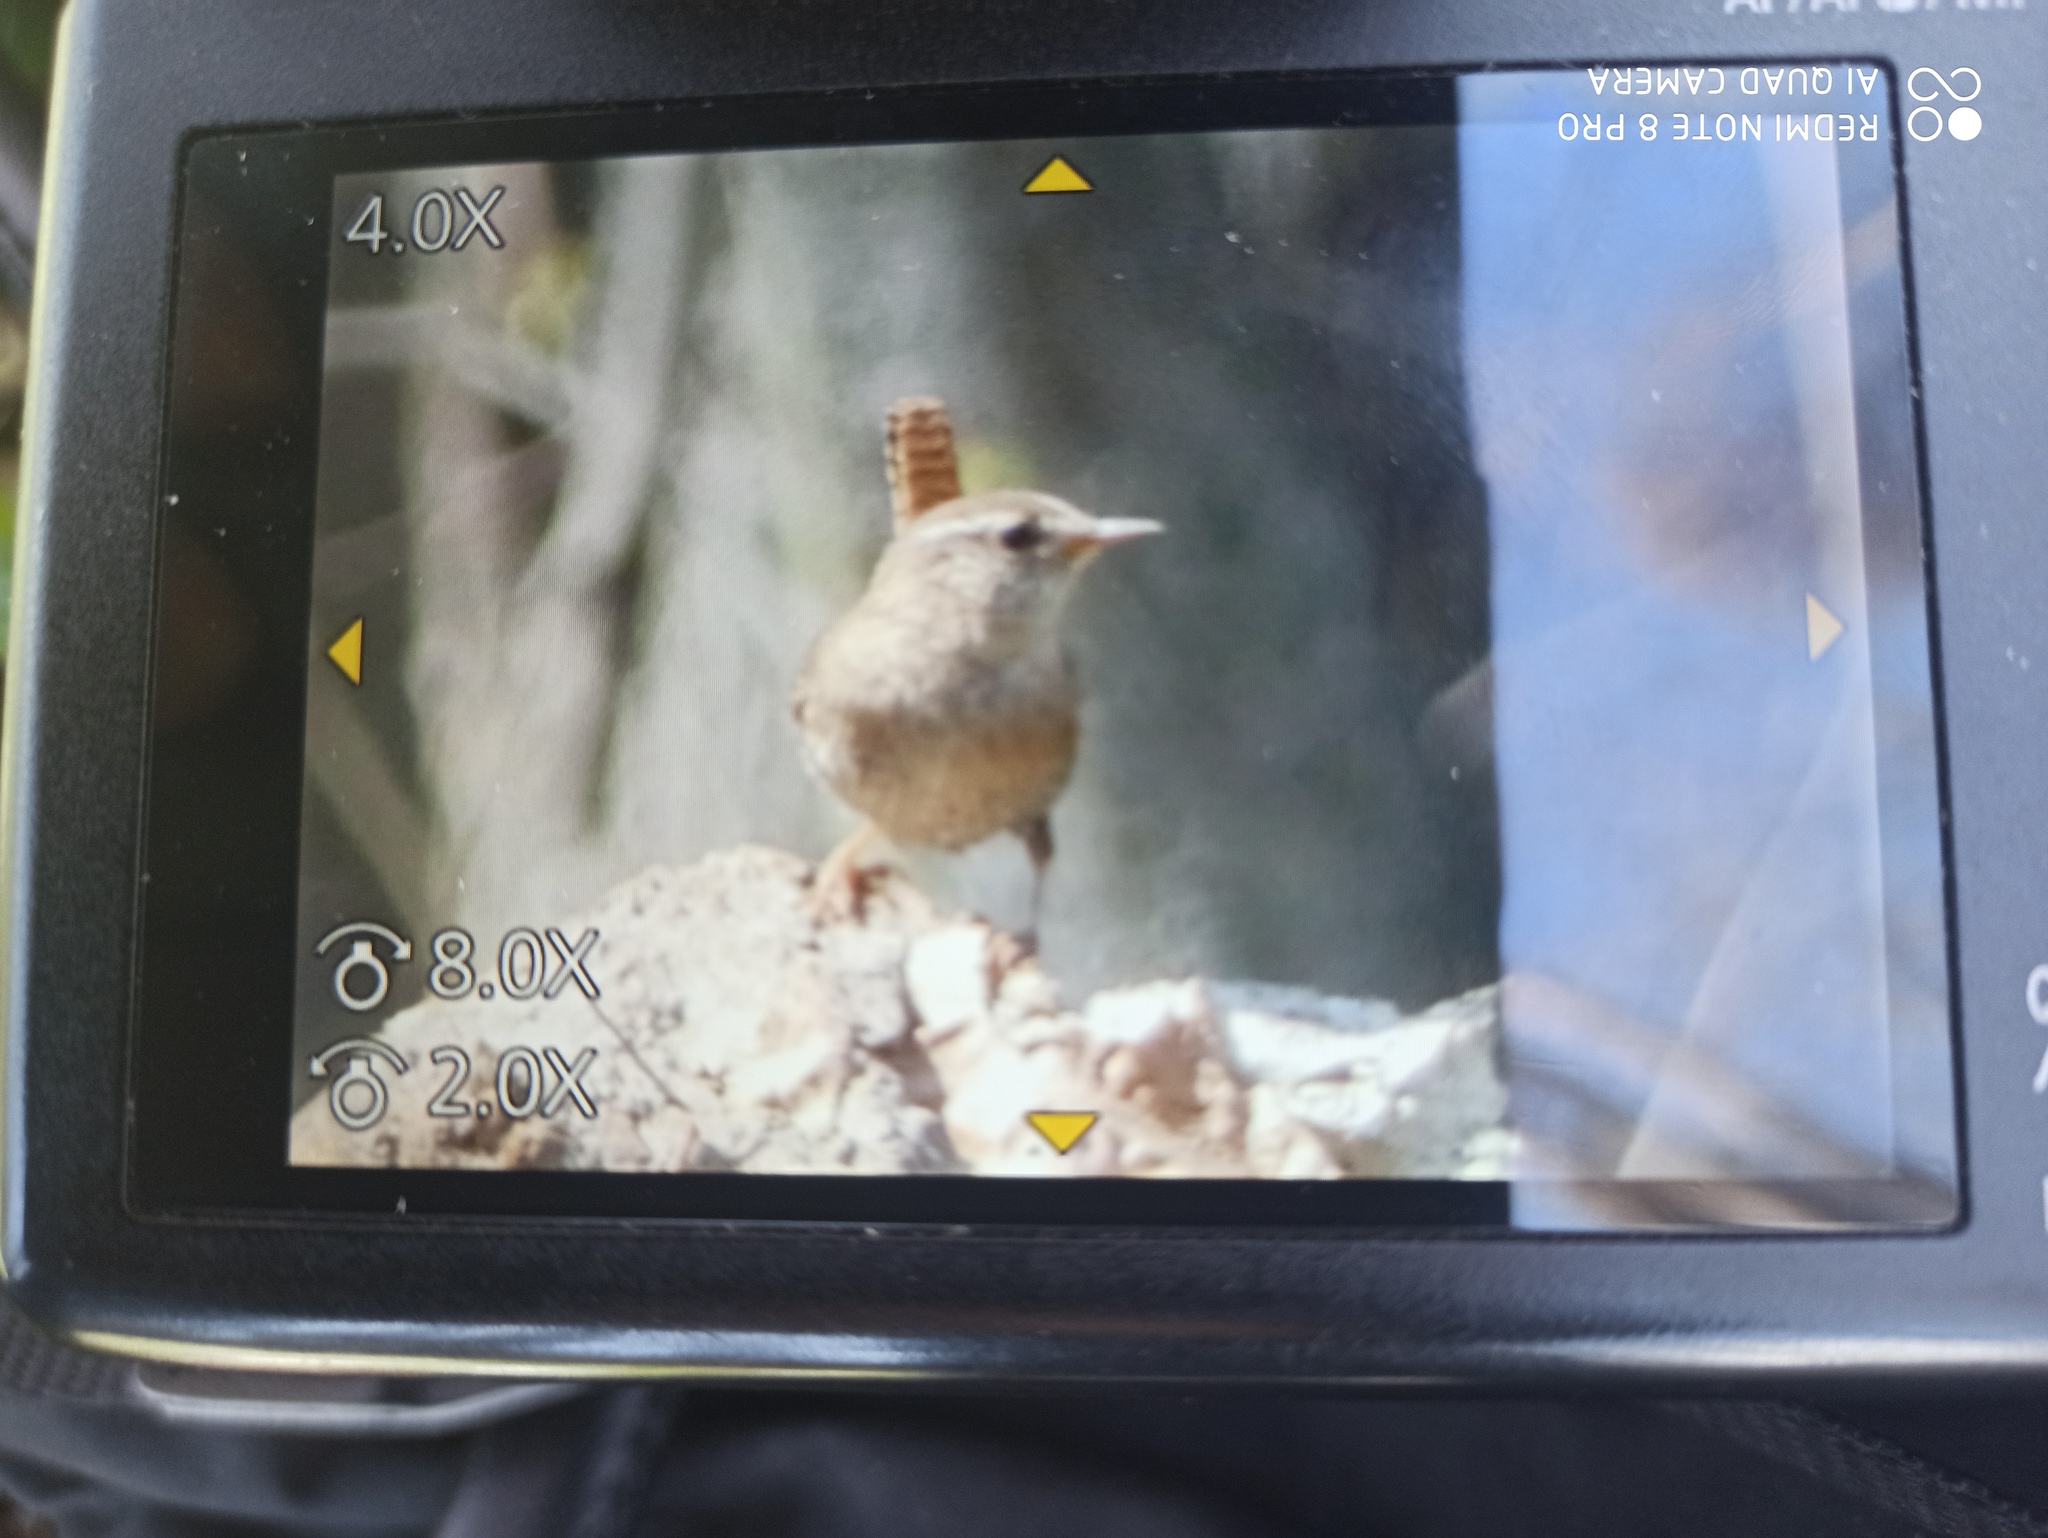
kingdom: Animalia
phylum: Chordata
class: Aves
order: Passeriformes
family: Troglodytidae
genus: Troglodytes
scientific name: Troglodytes troglodytes
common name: Eurasian wren
